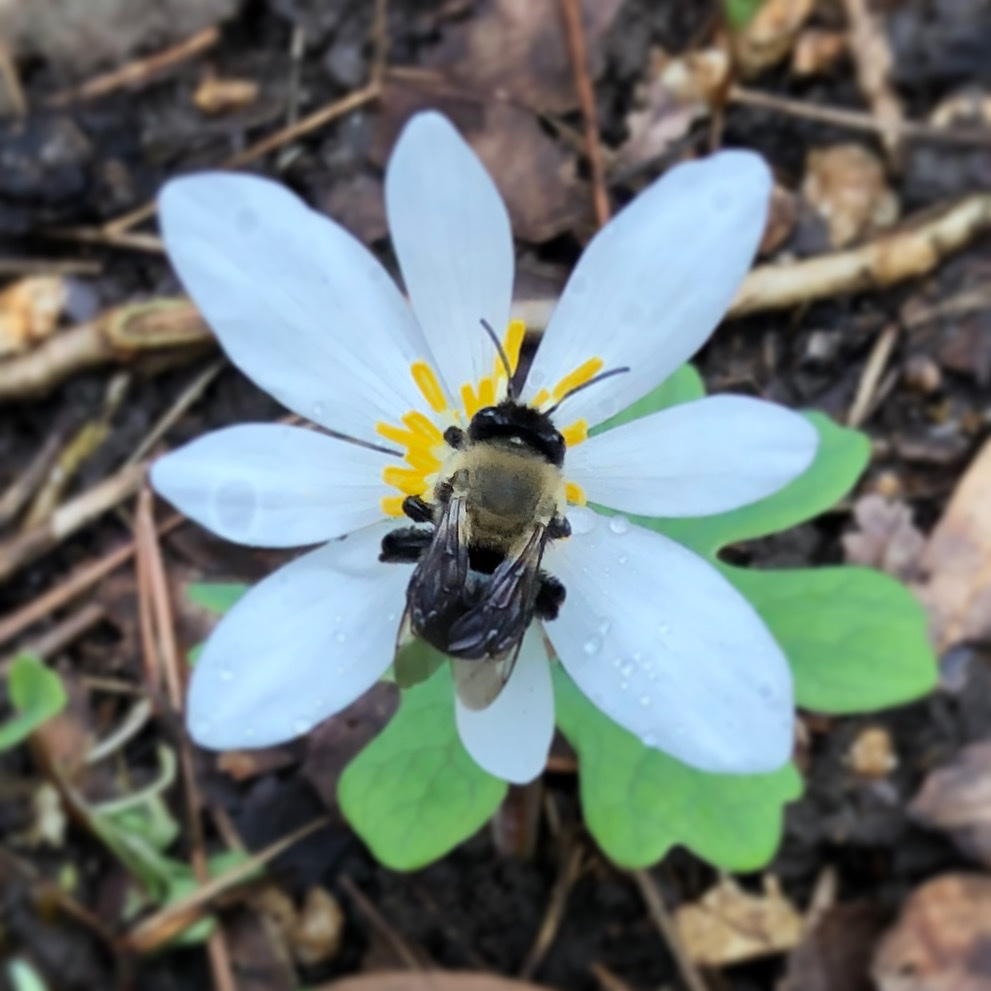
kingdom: Animalia
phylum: Arthropoda
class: Insecta
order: Hymenoptera
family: Apidae
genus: Habropoda
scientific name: Habropoda laboriosa
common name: Southeastern blueberry bee
